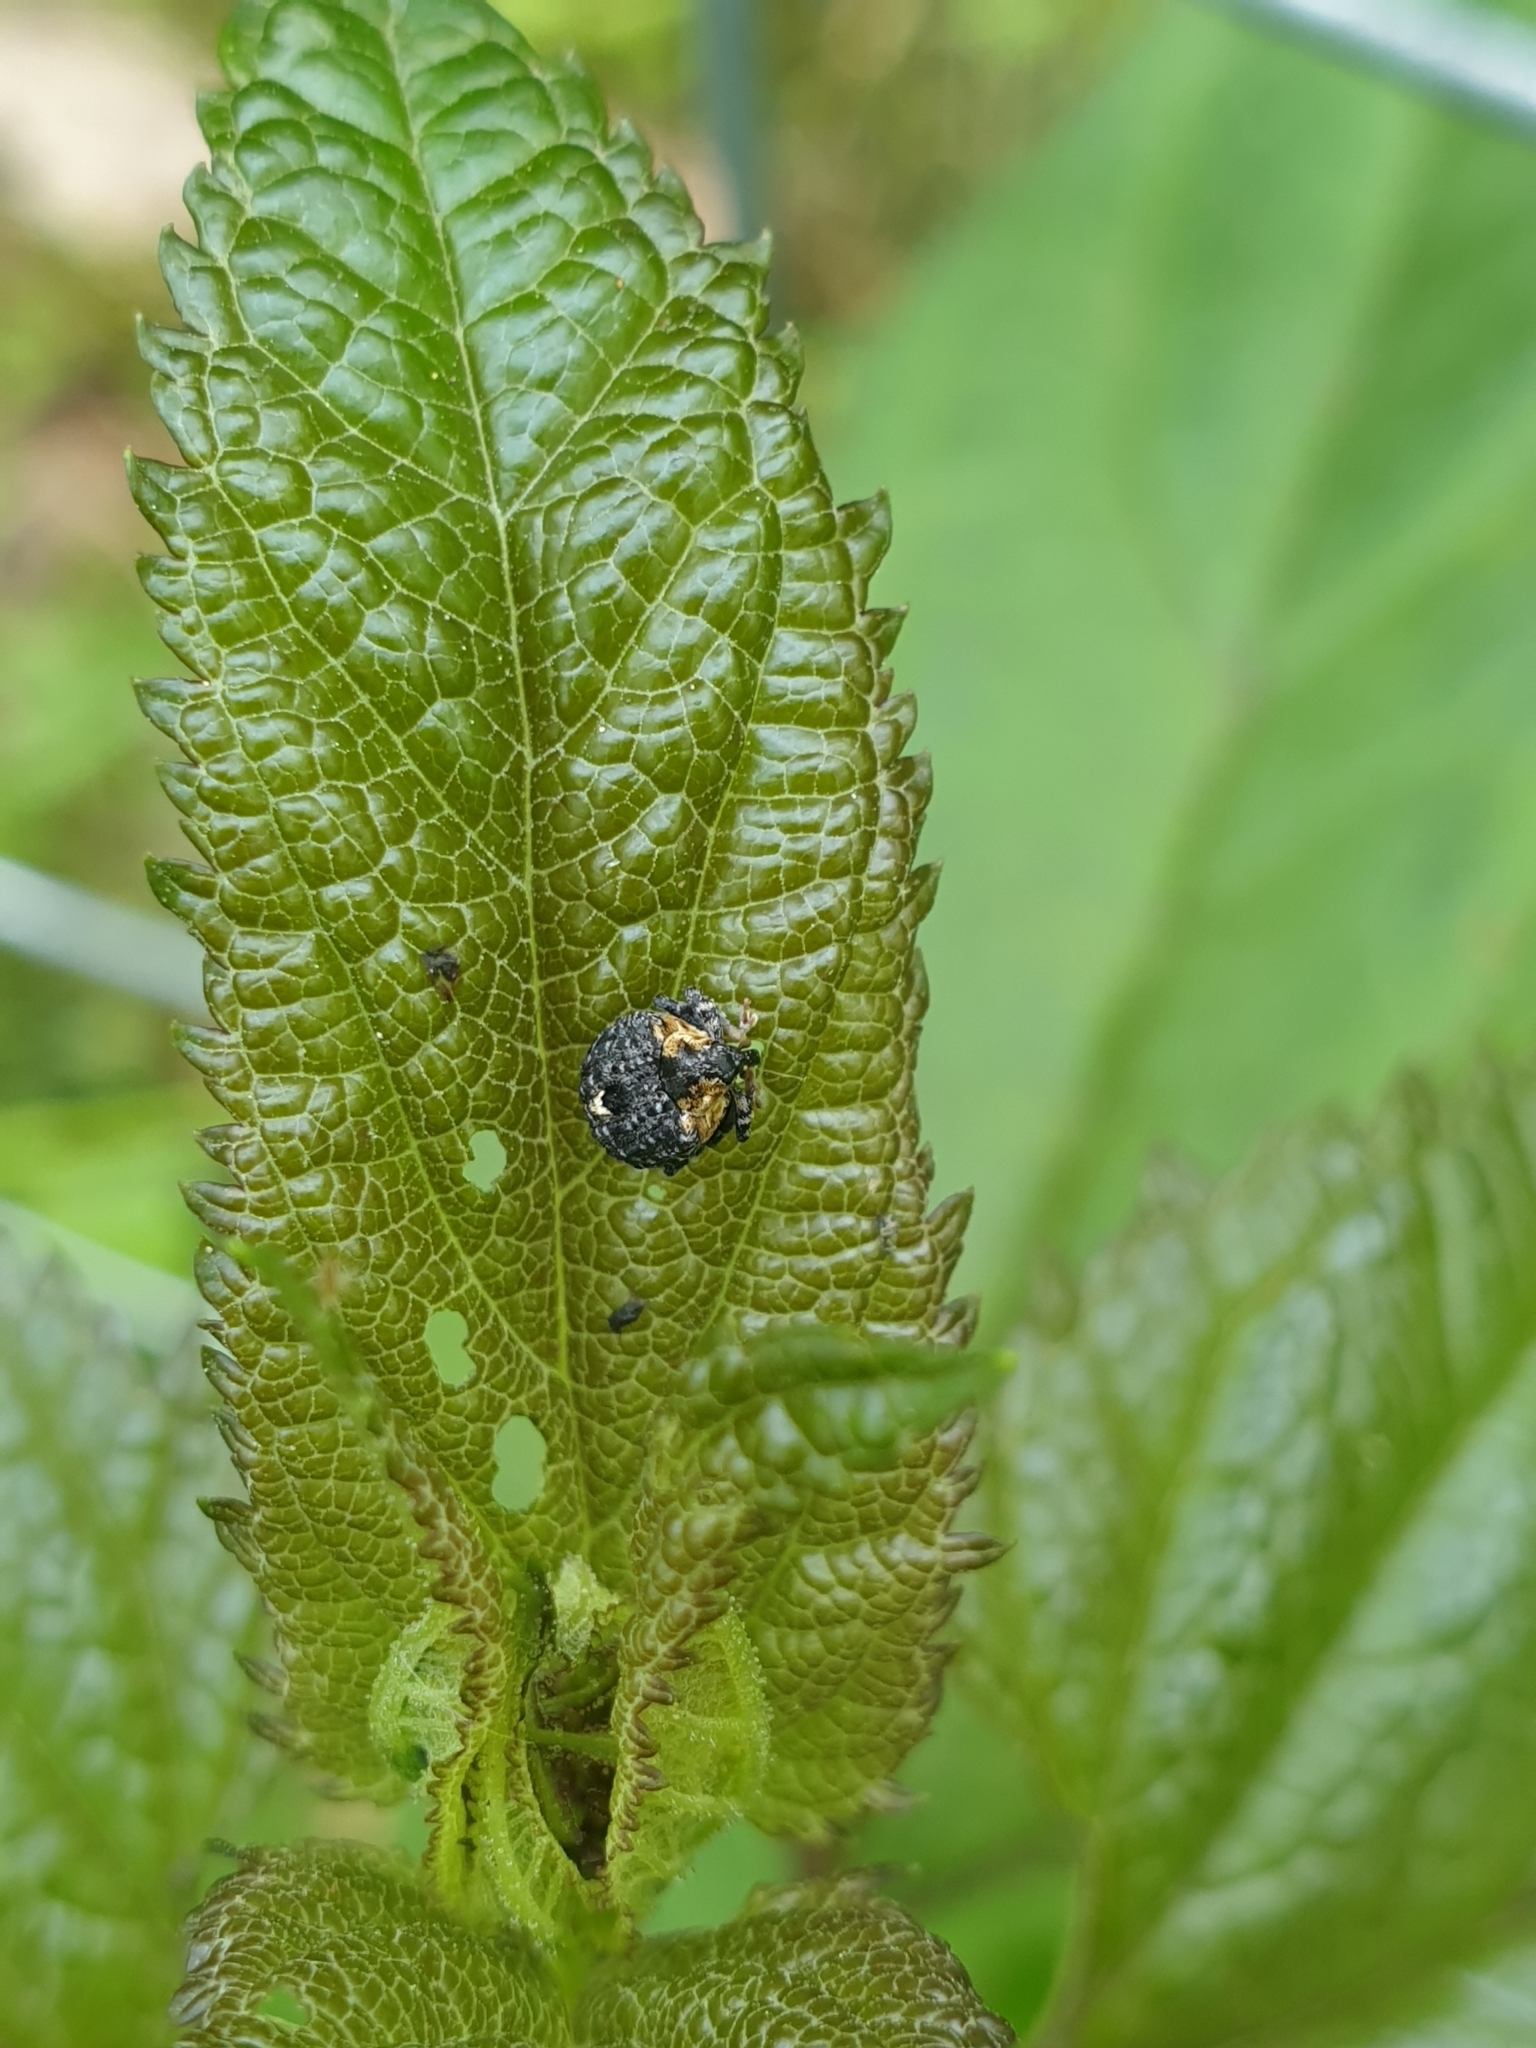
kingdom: Animalia
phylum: Arthropoda
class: Insecta
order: Coleoptera
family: Curculionidae
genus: Cionus
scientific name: Cionus tuberculosus
